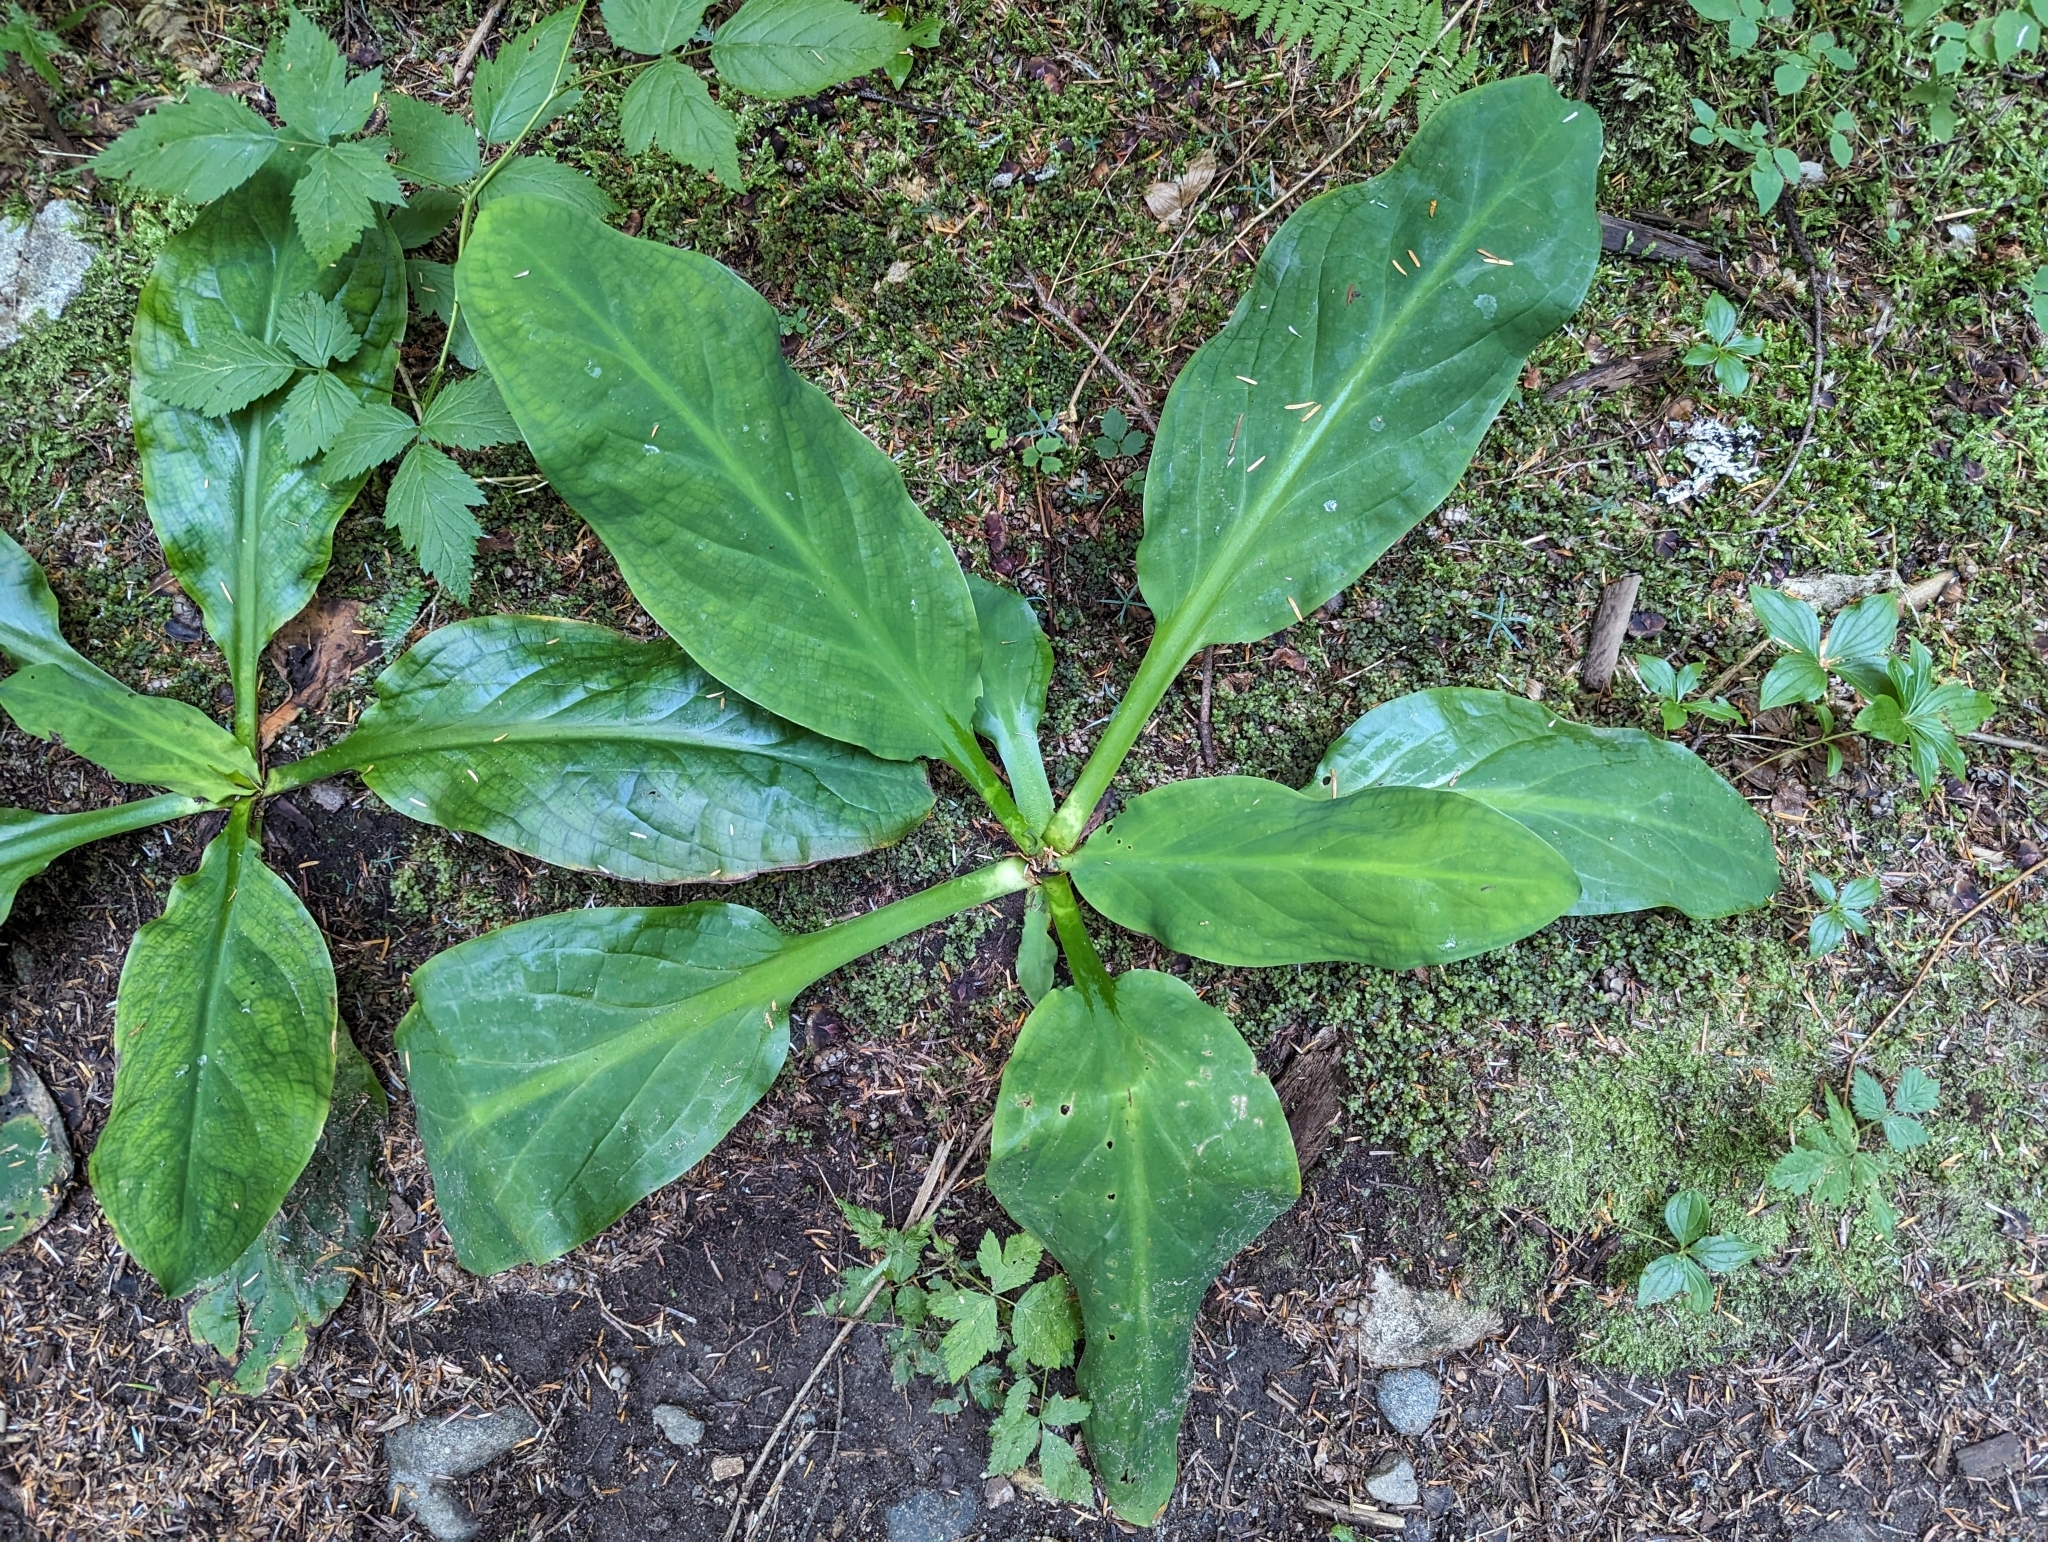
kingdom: Plantae
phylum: Tracheophyta
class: Liliopsida
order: Alismatales
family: Araceae
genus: Lysichiton
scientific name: Lysichiton americanus
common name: American skunk cabbage
